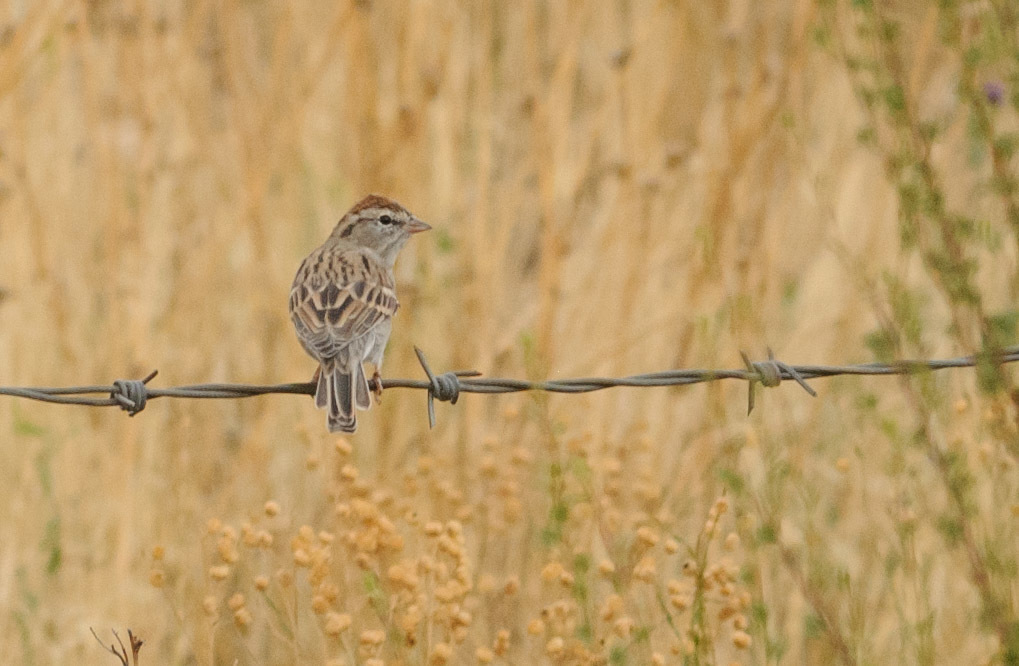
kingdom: Animalia
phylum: Chordata
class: Aves
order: Passeriformes
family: Passerellidae
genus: Spizella
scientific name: Spizella passerina
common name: Chipping sparrow
